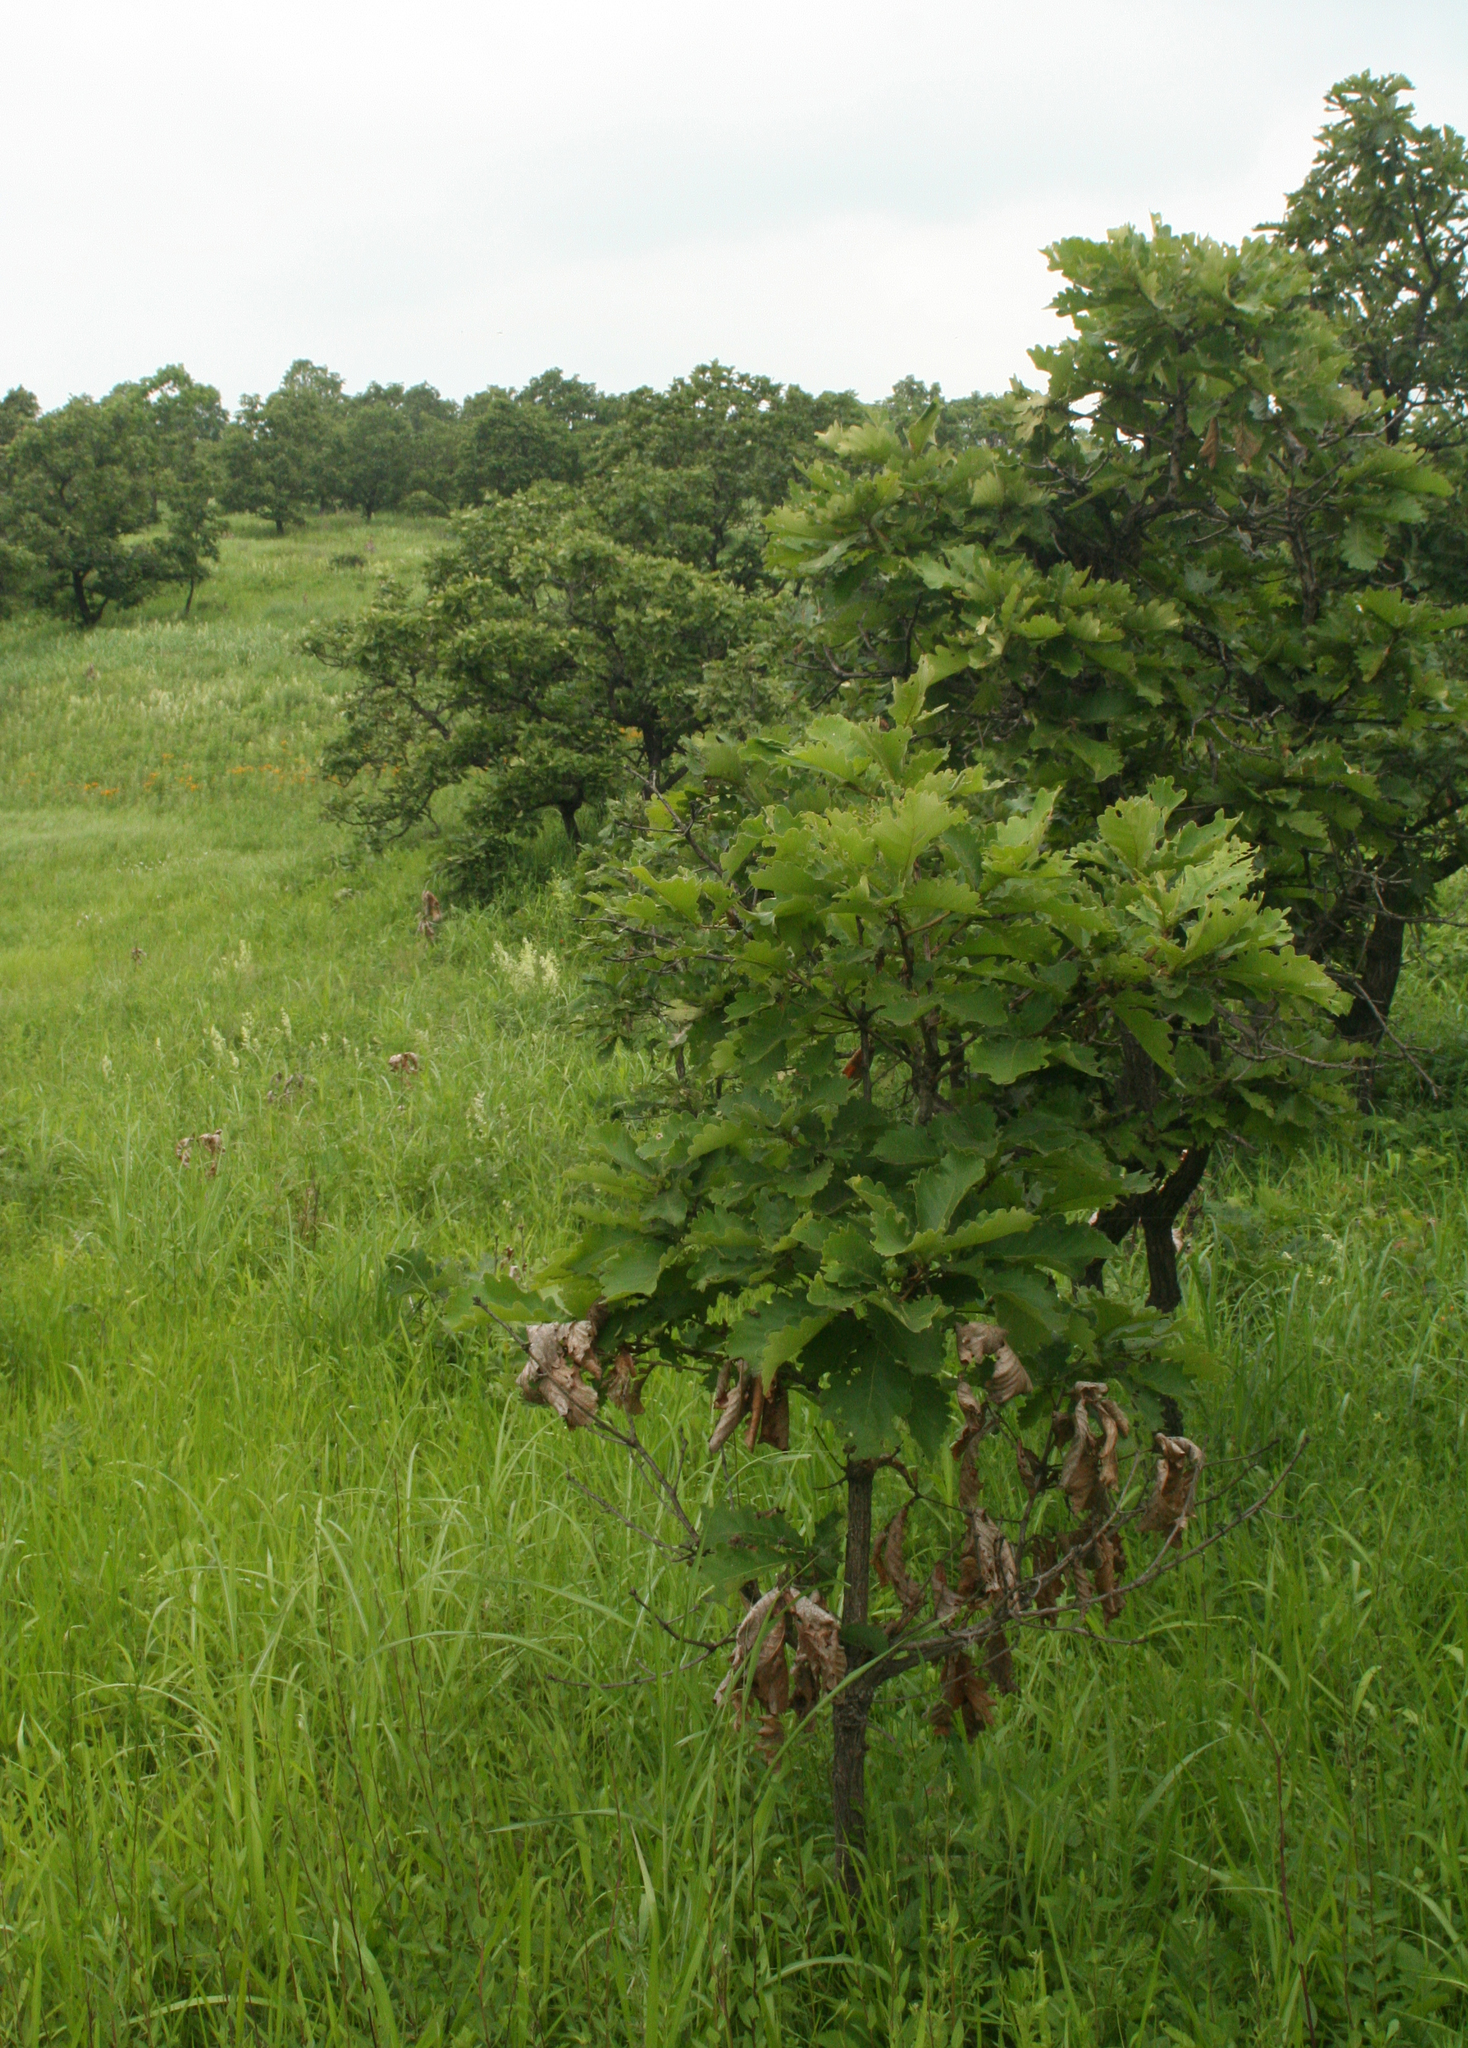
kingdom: Plantae
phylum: Tracheophyta
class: Magnoliopsida
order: Fagales
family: Fagaceae
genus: Quercus
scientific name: Quercus dentata
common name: Daimyo oak
